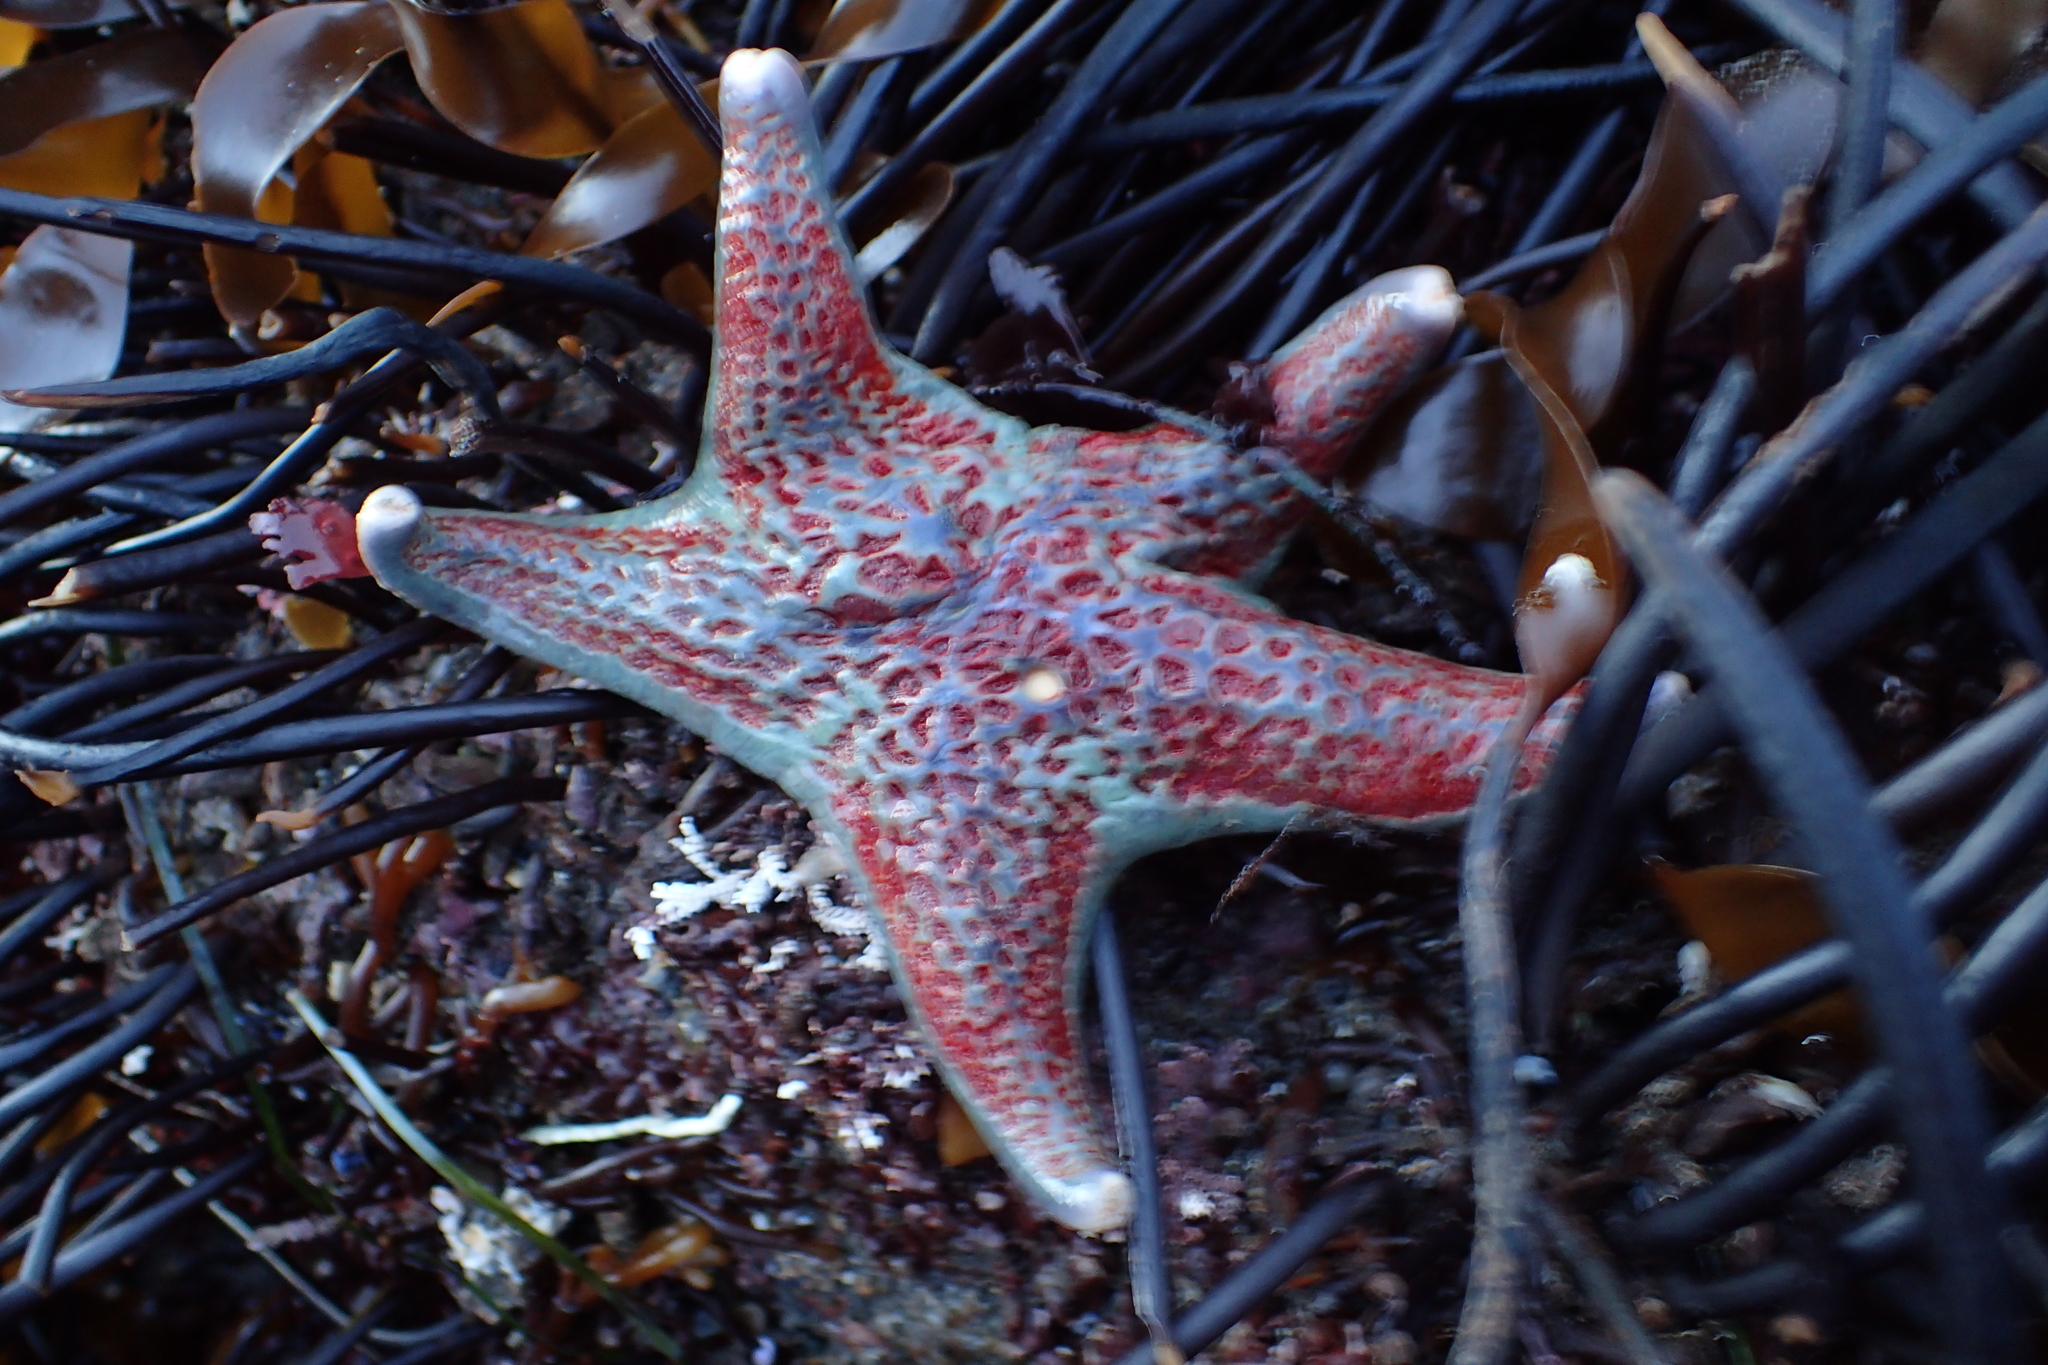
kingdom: Animalia
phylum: Echinodermata
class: Asteroidea
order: Valvatida
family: Asteropseidae
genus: Dermasterias
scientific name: Dermasterias imbricata
